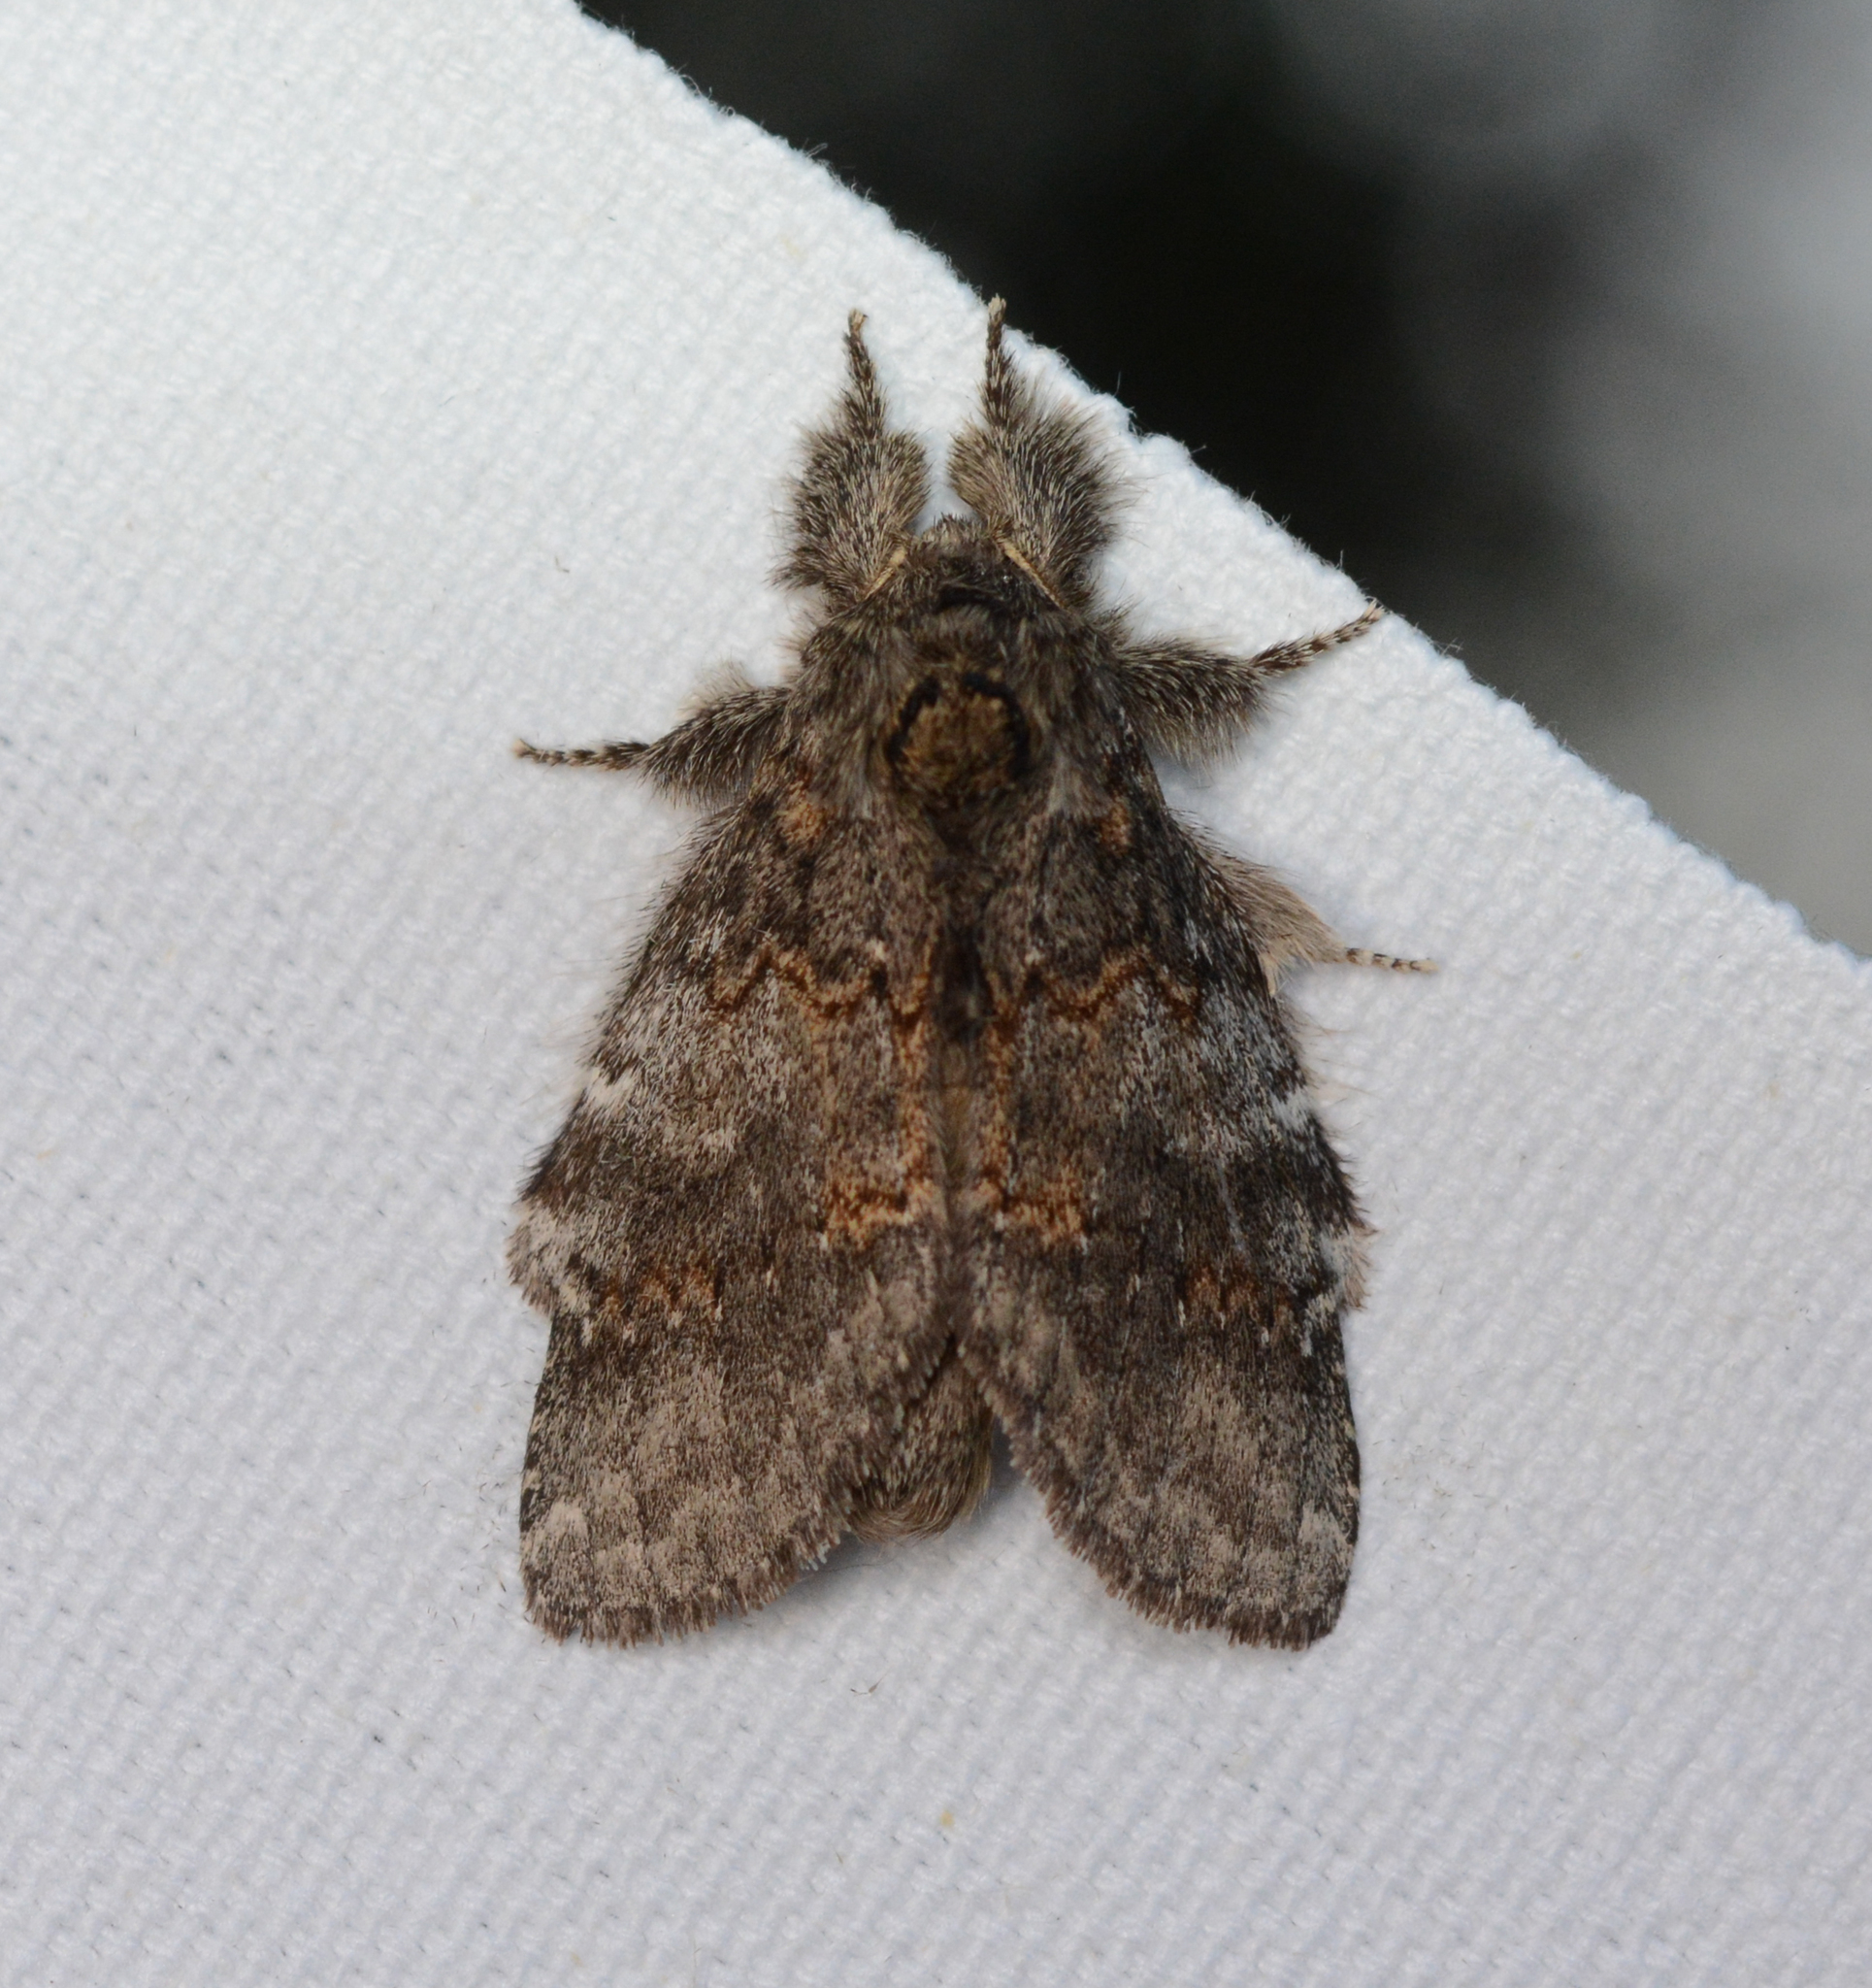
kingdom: Animalia
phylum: Arthropoda
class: Insecta
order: Lepidoptera
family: Notodontidae
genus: Peridea
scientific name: Peridea angulosa
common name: Angulose prominent
